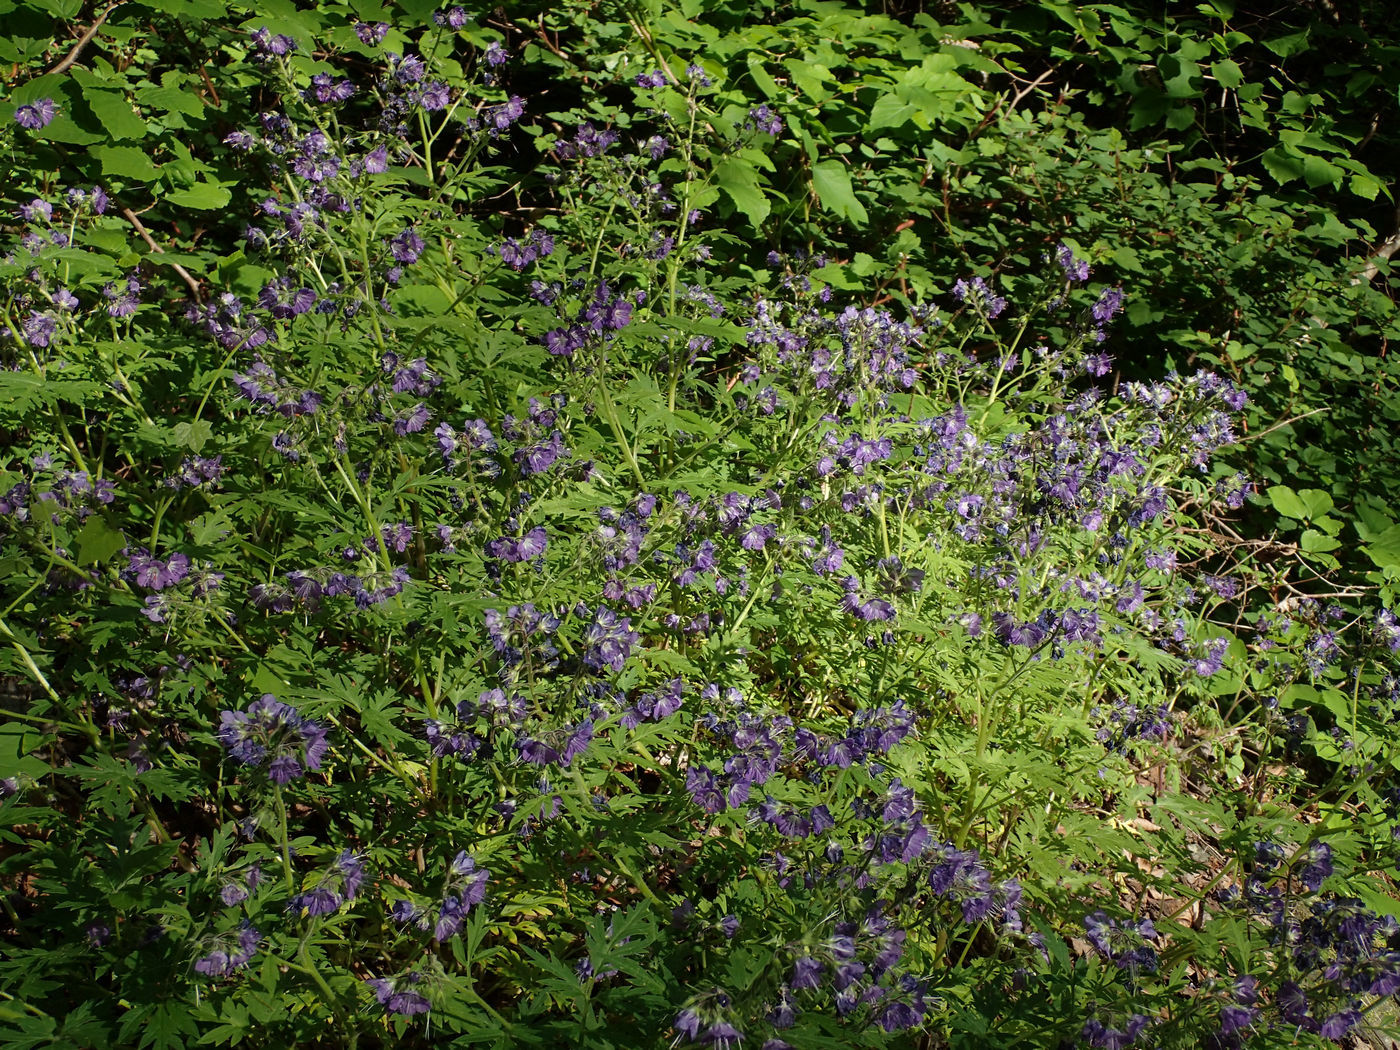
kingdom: Plantae
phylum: Tracheophyta
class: Magnoliopsida
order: Boraginales
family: Hydrophyllaceae
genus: Phacelia
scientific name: Phacelia bipinnatifida
